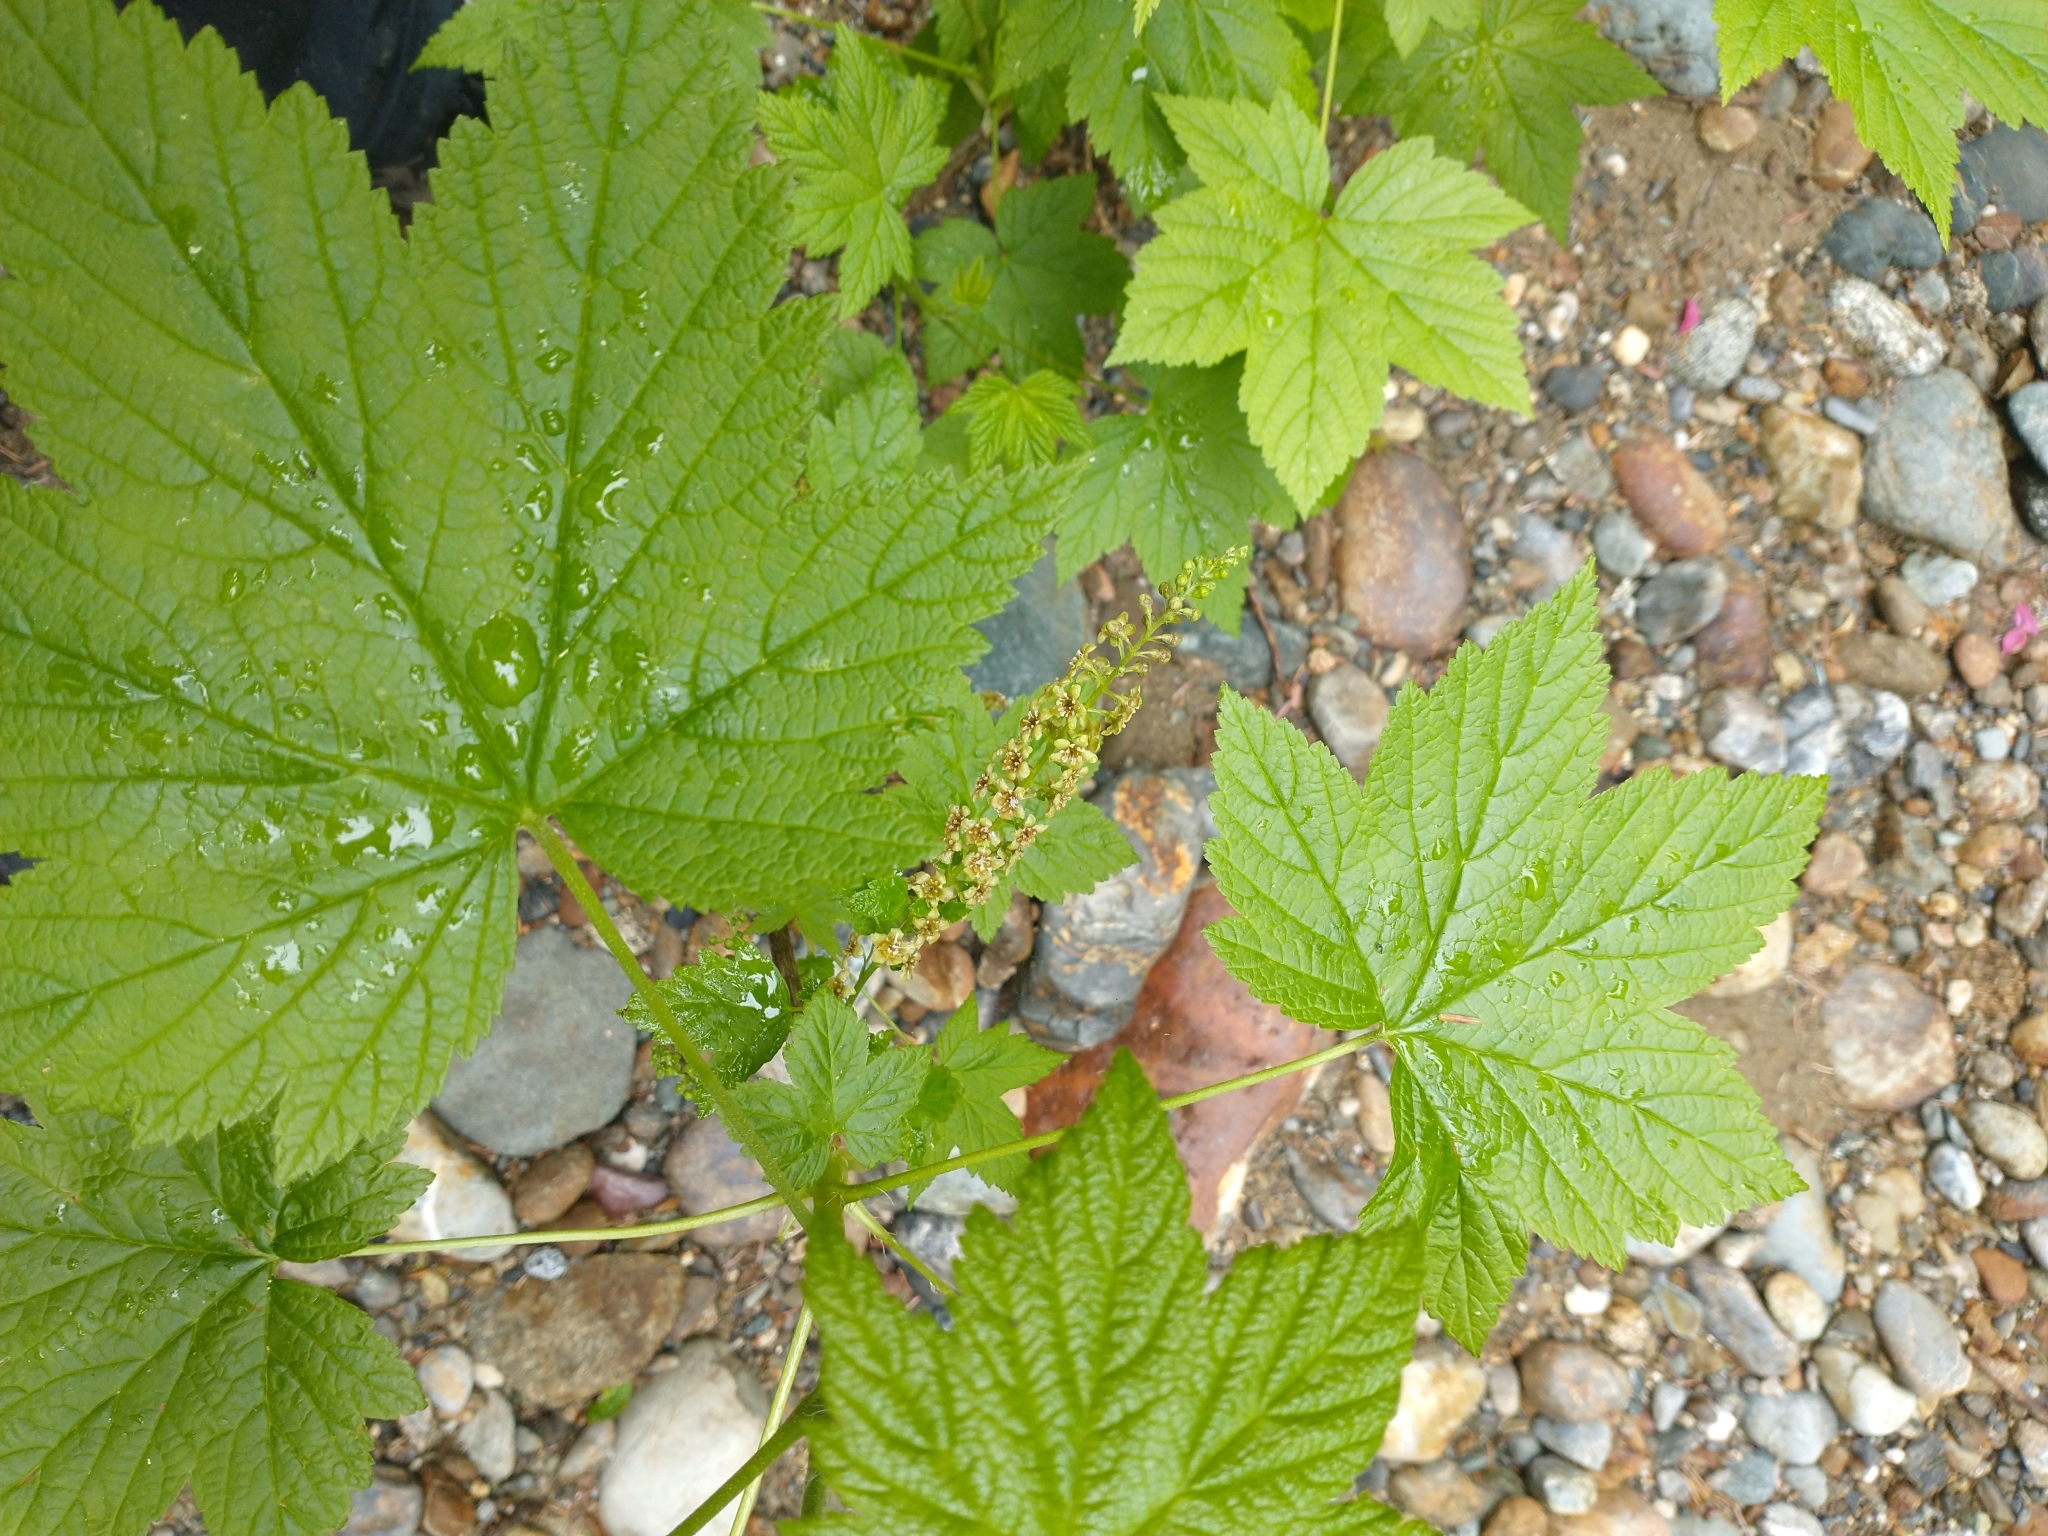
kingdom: Plantae
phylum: Tracheophyta
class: Magnoliopsida
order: Saxifragales
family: Grossulariaceae
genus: Ribes
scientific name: Ribes bracteosum
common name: California black currant
